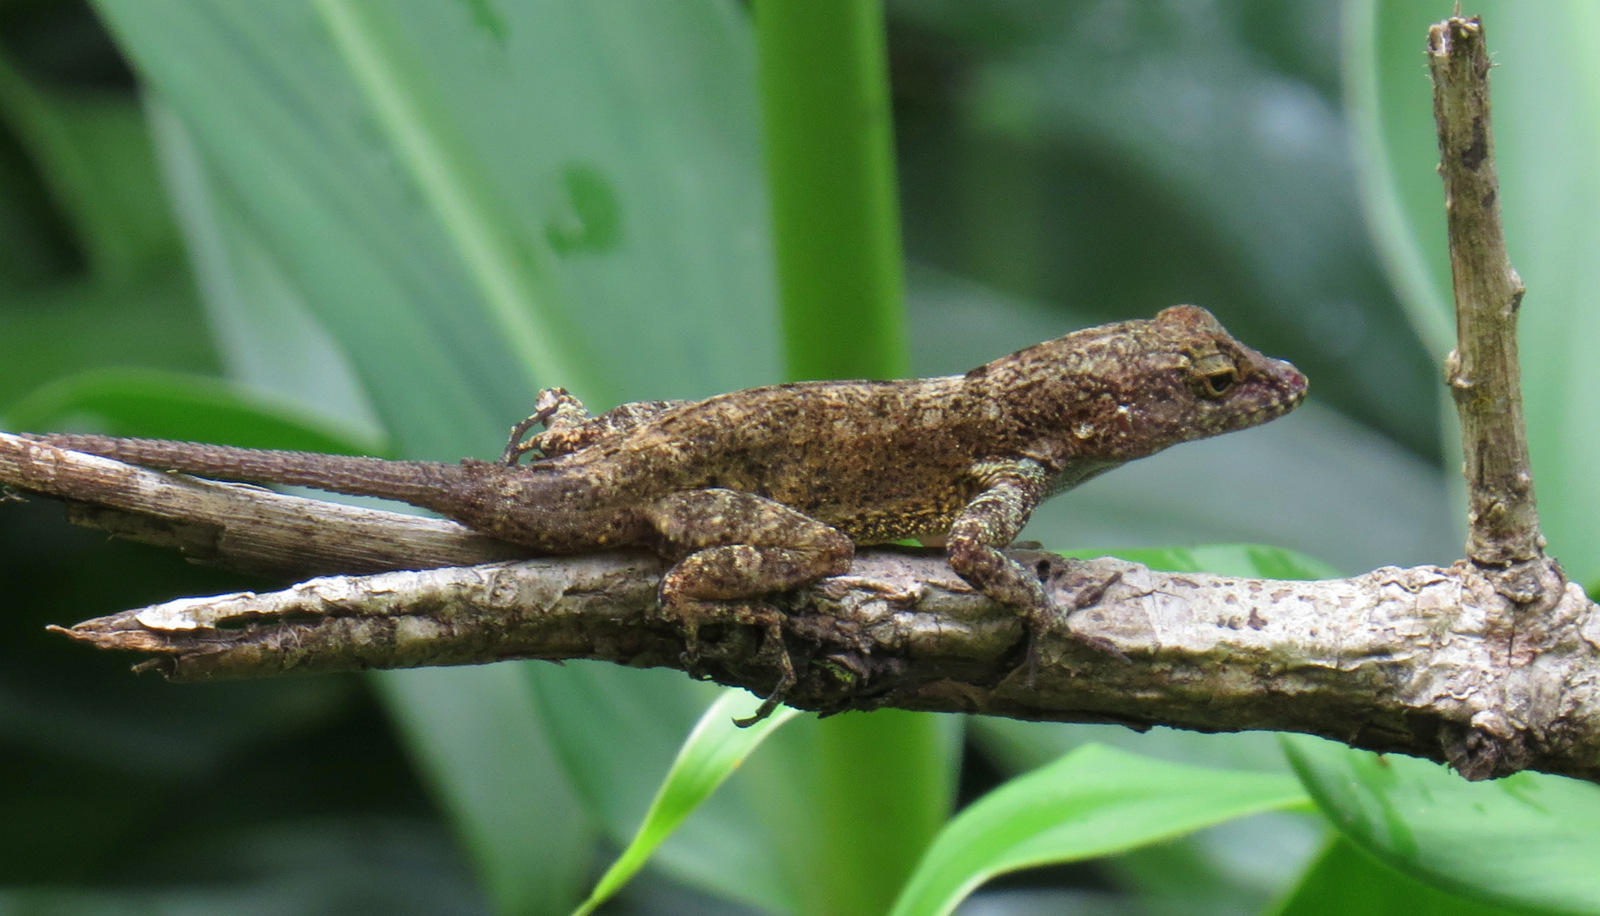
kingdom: Animalia
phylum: Chordata
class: Squamata
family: Dactyloidae
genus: Anolis
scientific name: Anolis cristatellus
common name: Crested anole
